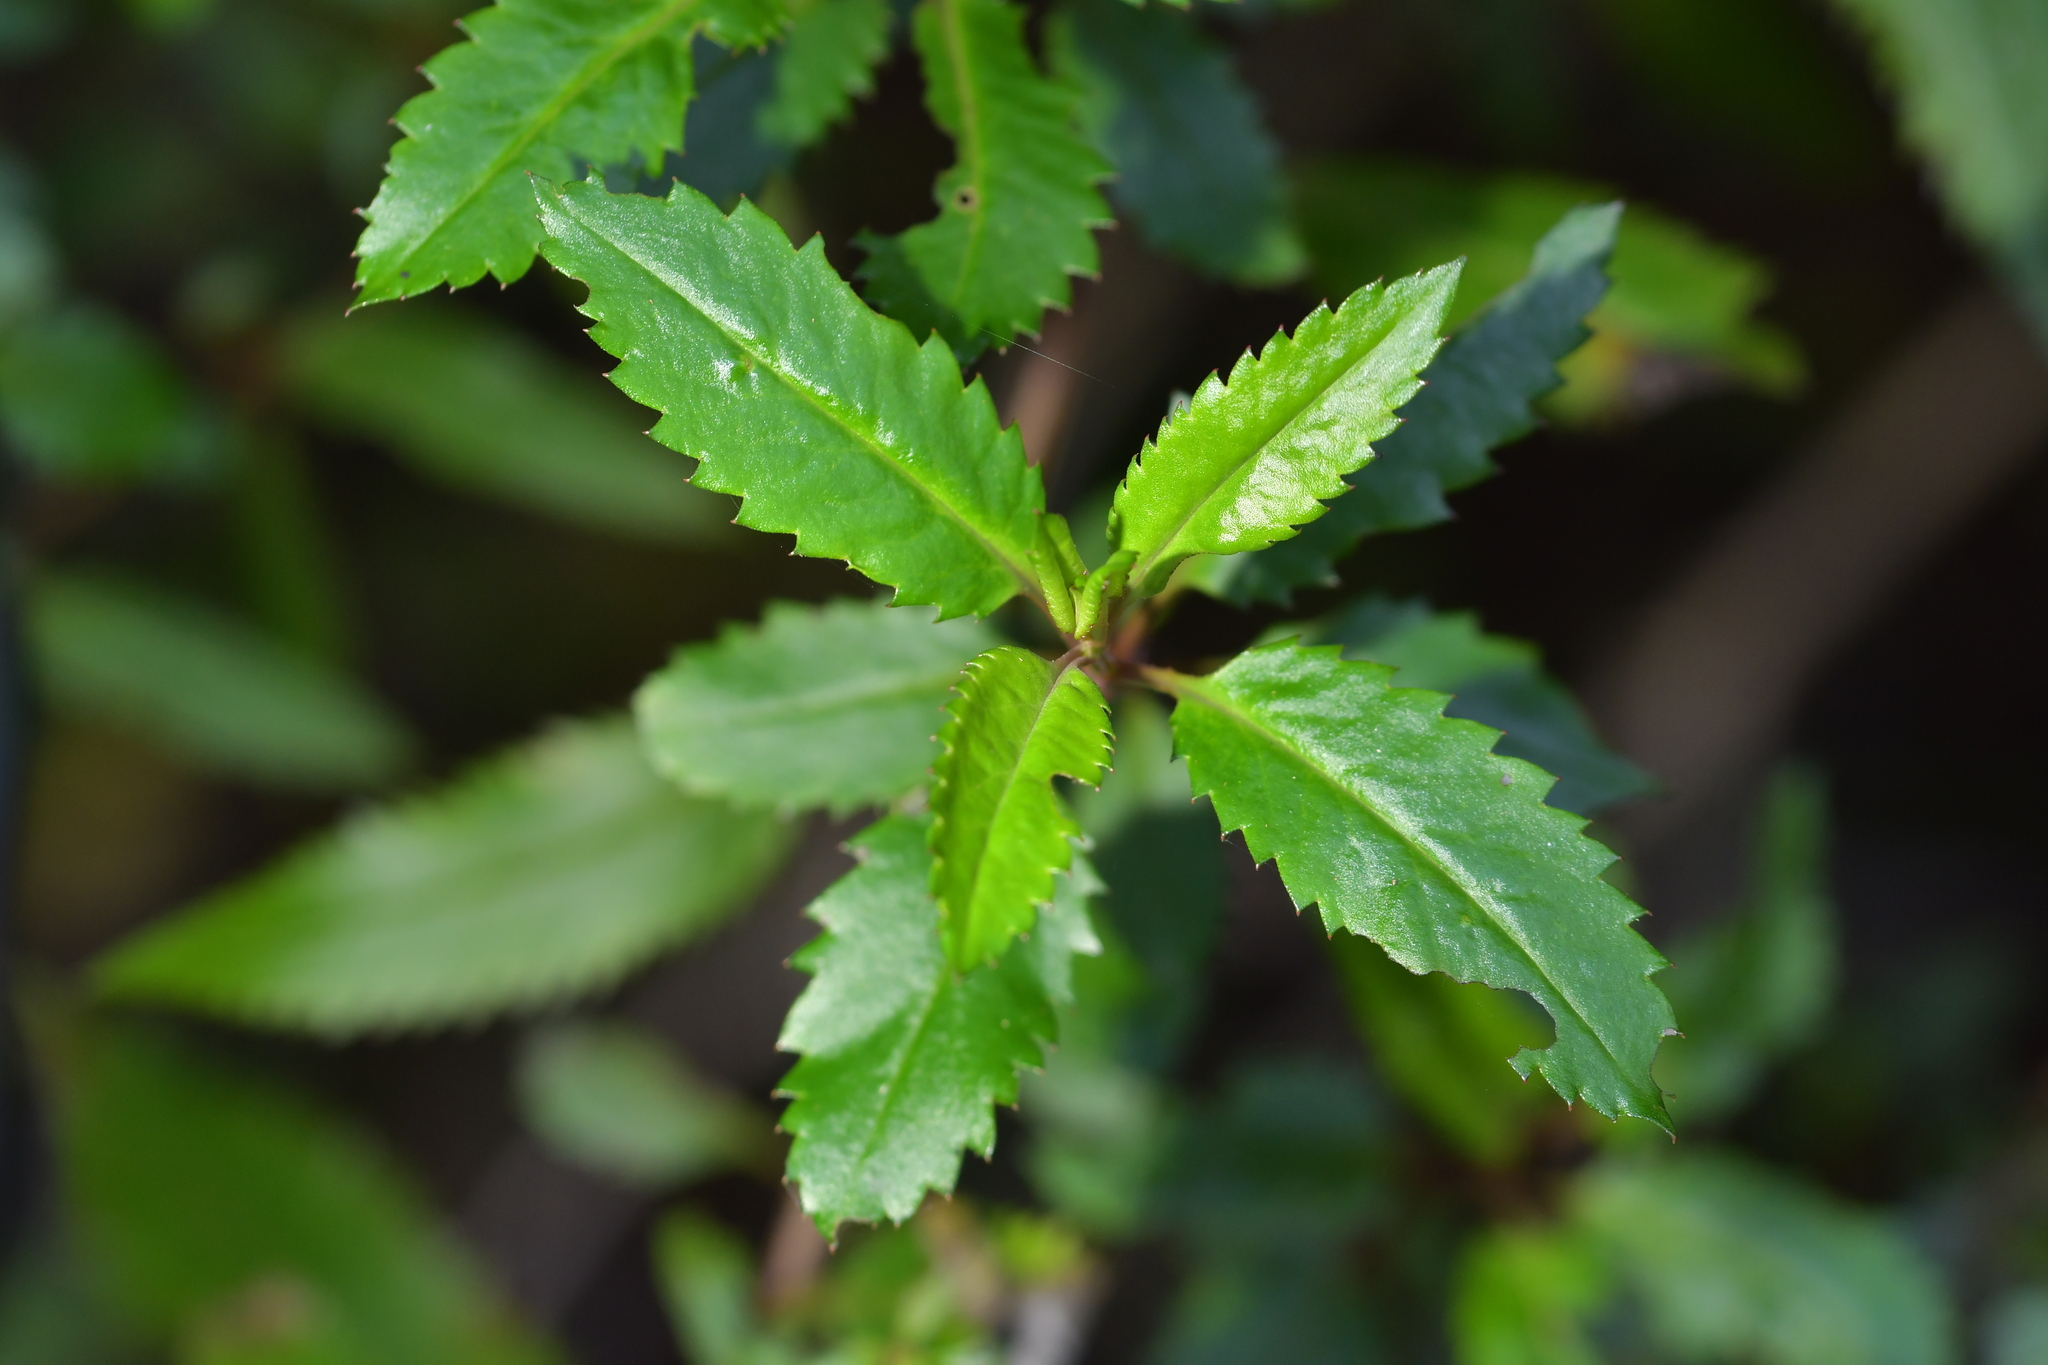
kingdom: Plantae
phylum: Tracheophyta
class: Magnoliopsida
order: Saxifragales
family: Haloragaceae
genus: Haloragis
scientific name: Haloragis erecta
